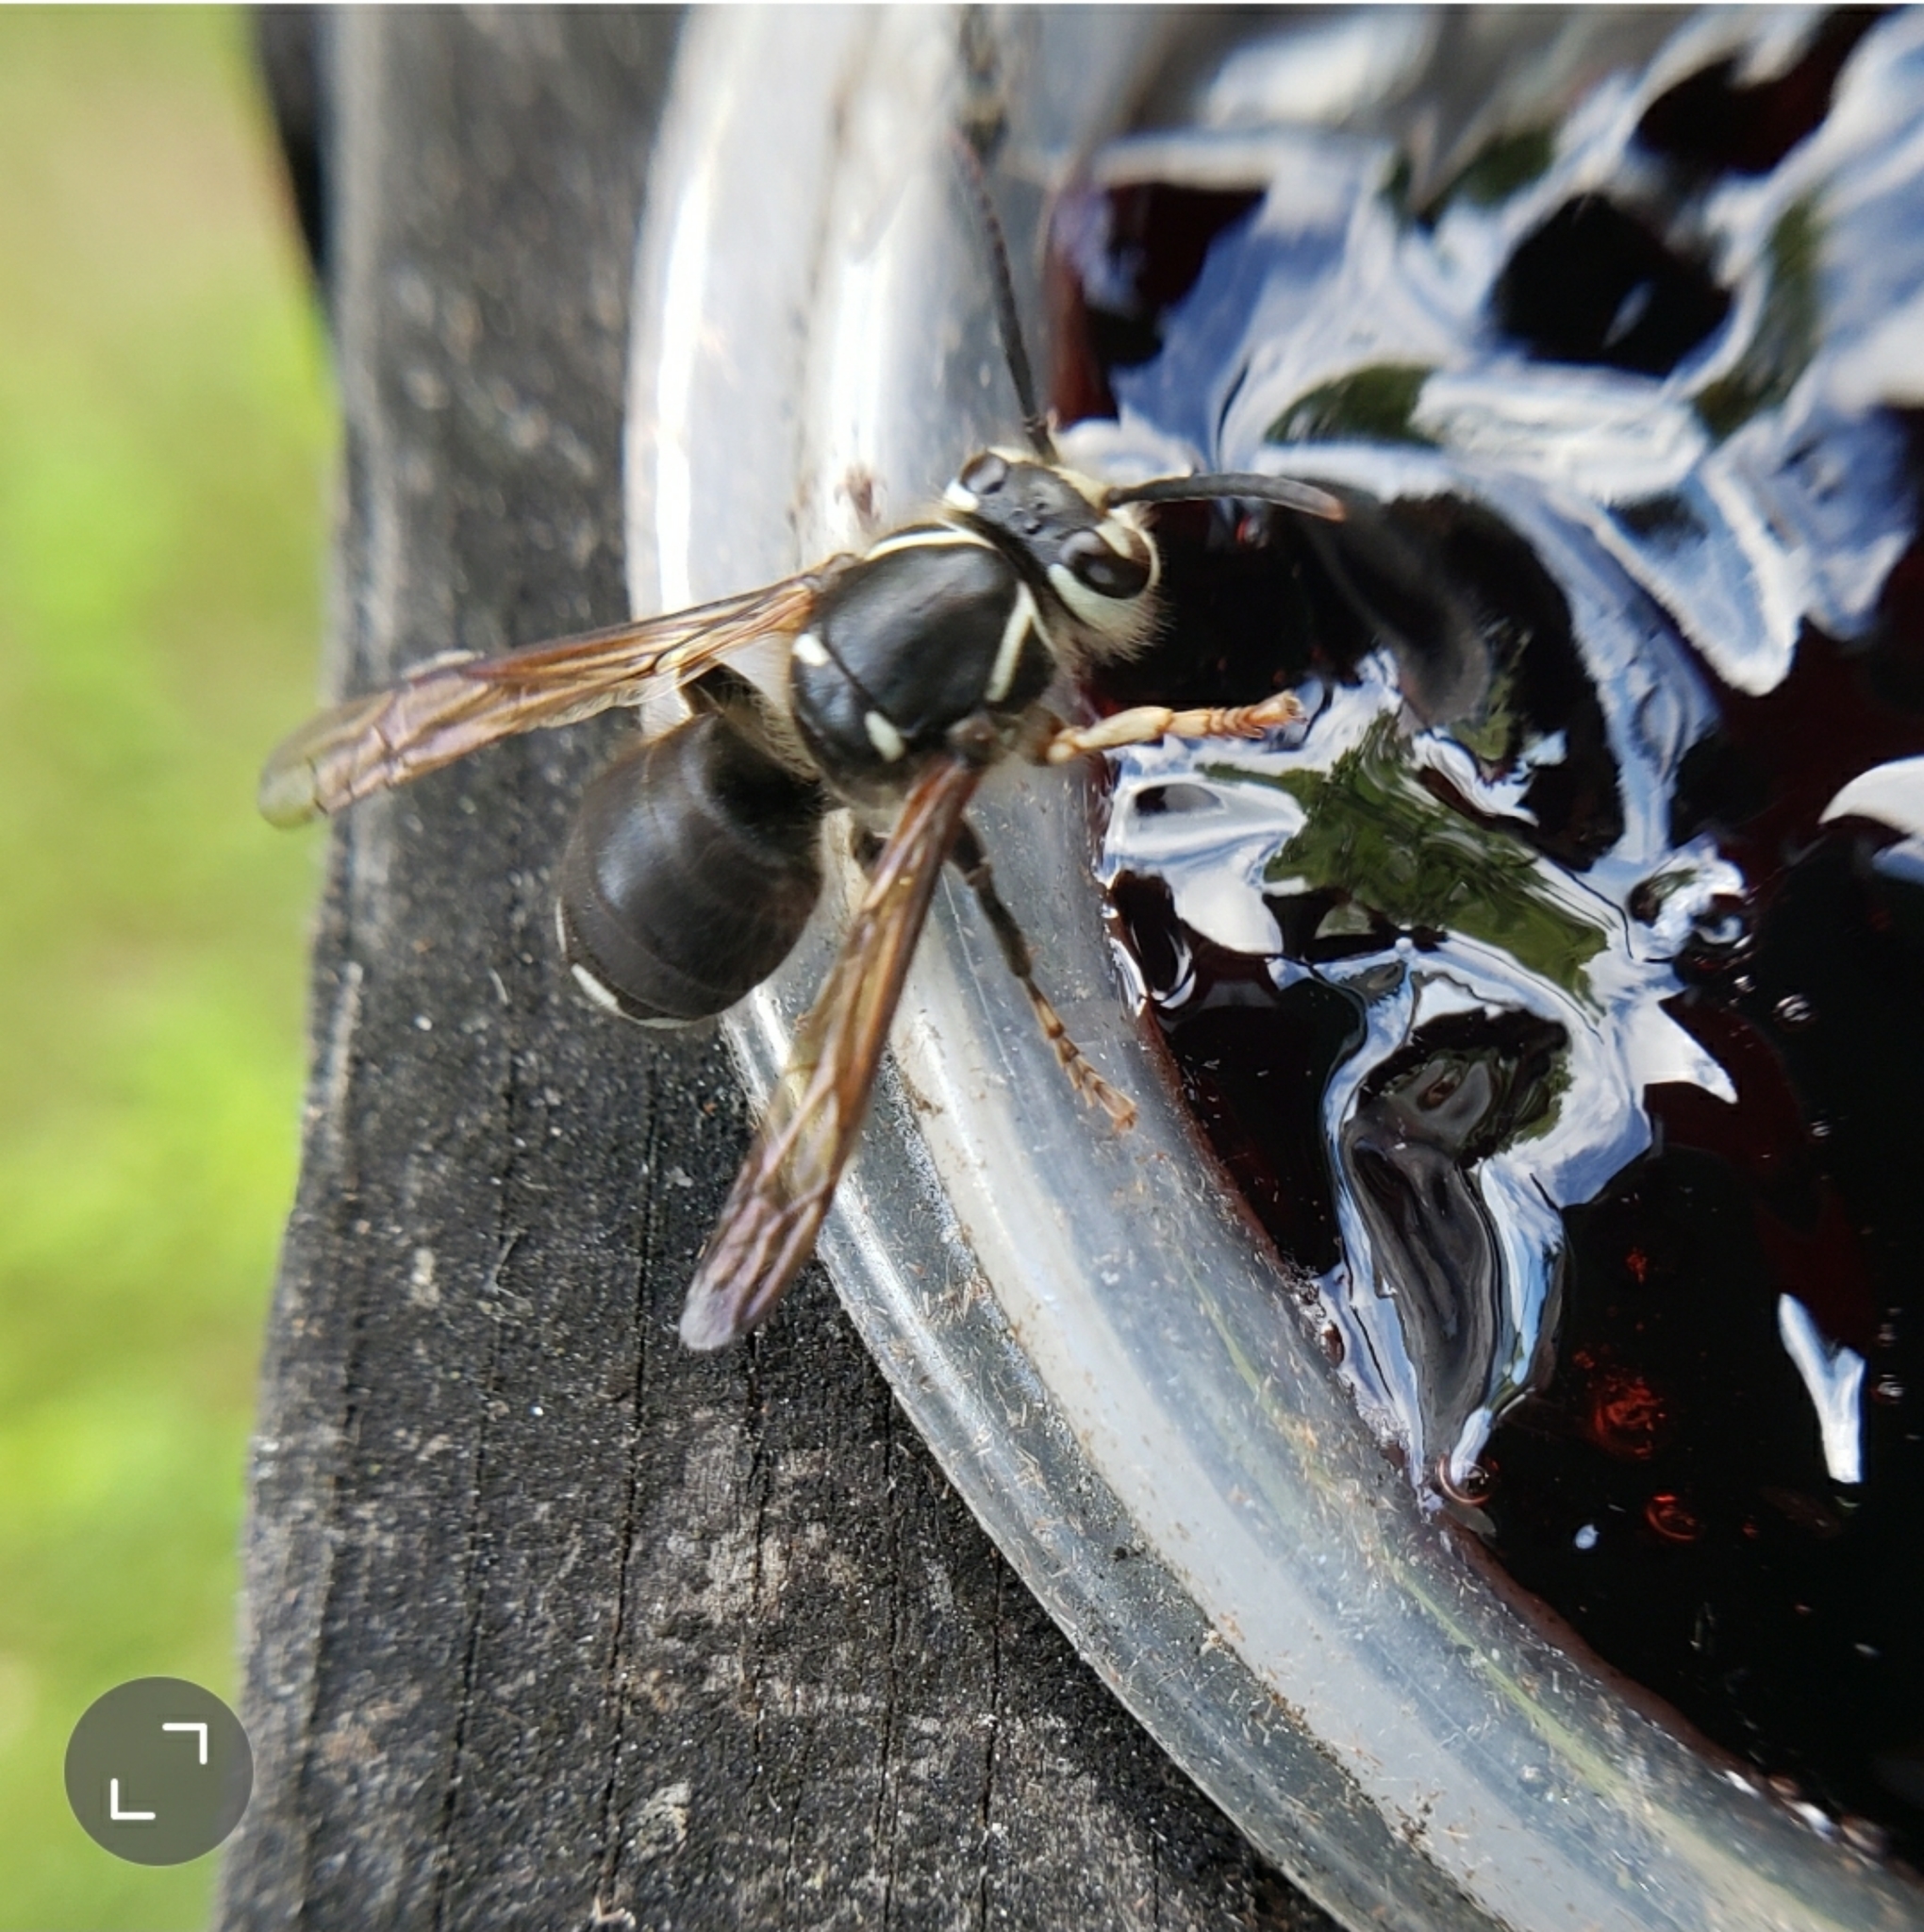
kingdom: Animalia
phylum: Arthropoda
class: Insecta
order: Hymenoptera
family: Vespidae
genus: Dolichovespula
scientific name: Dolichovespula maculata
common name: Bald-faced hornet
